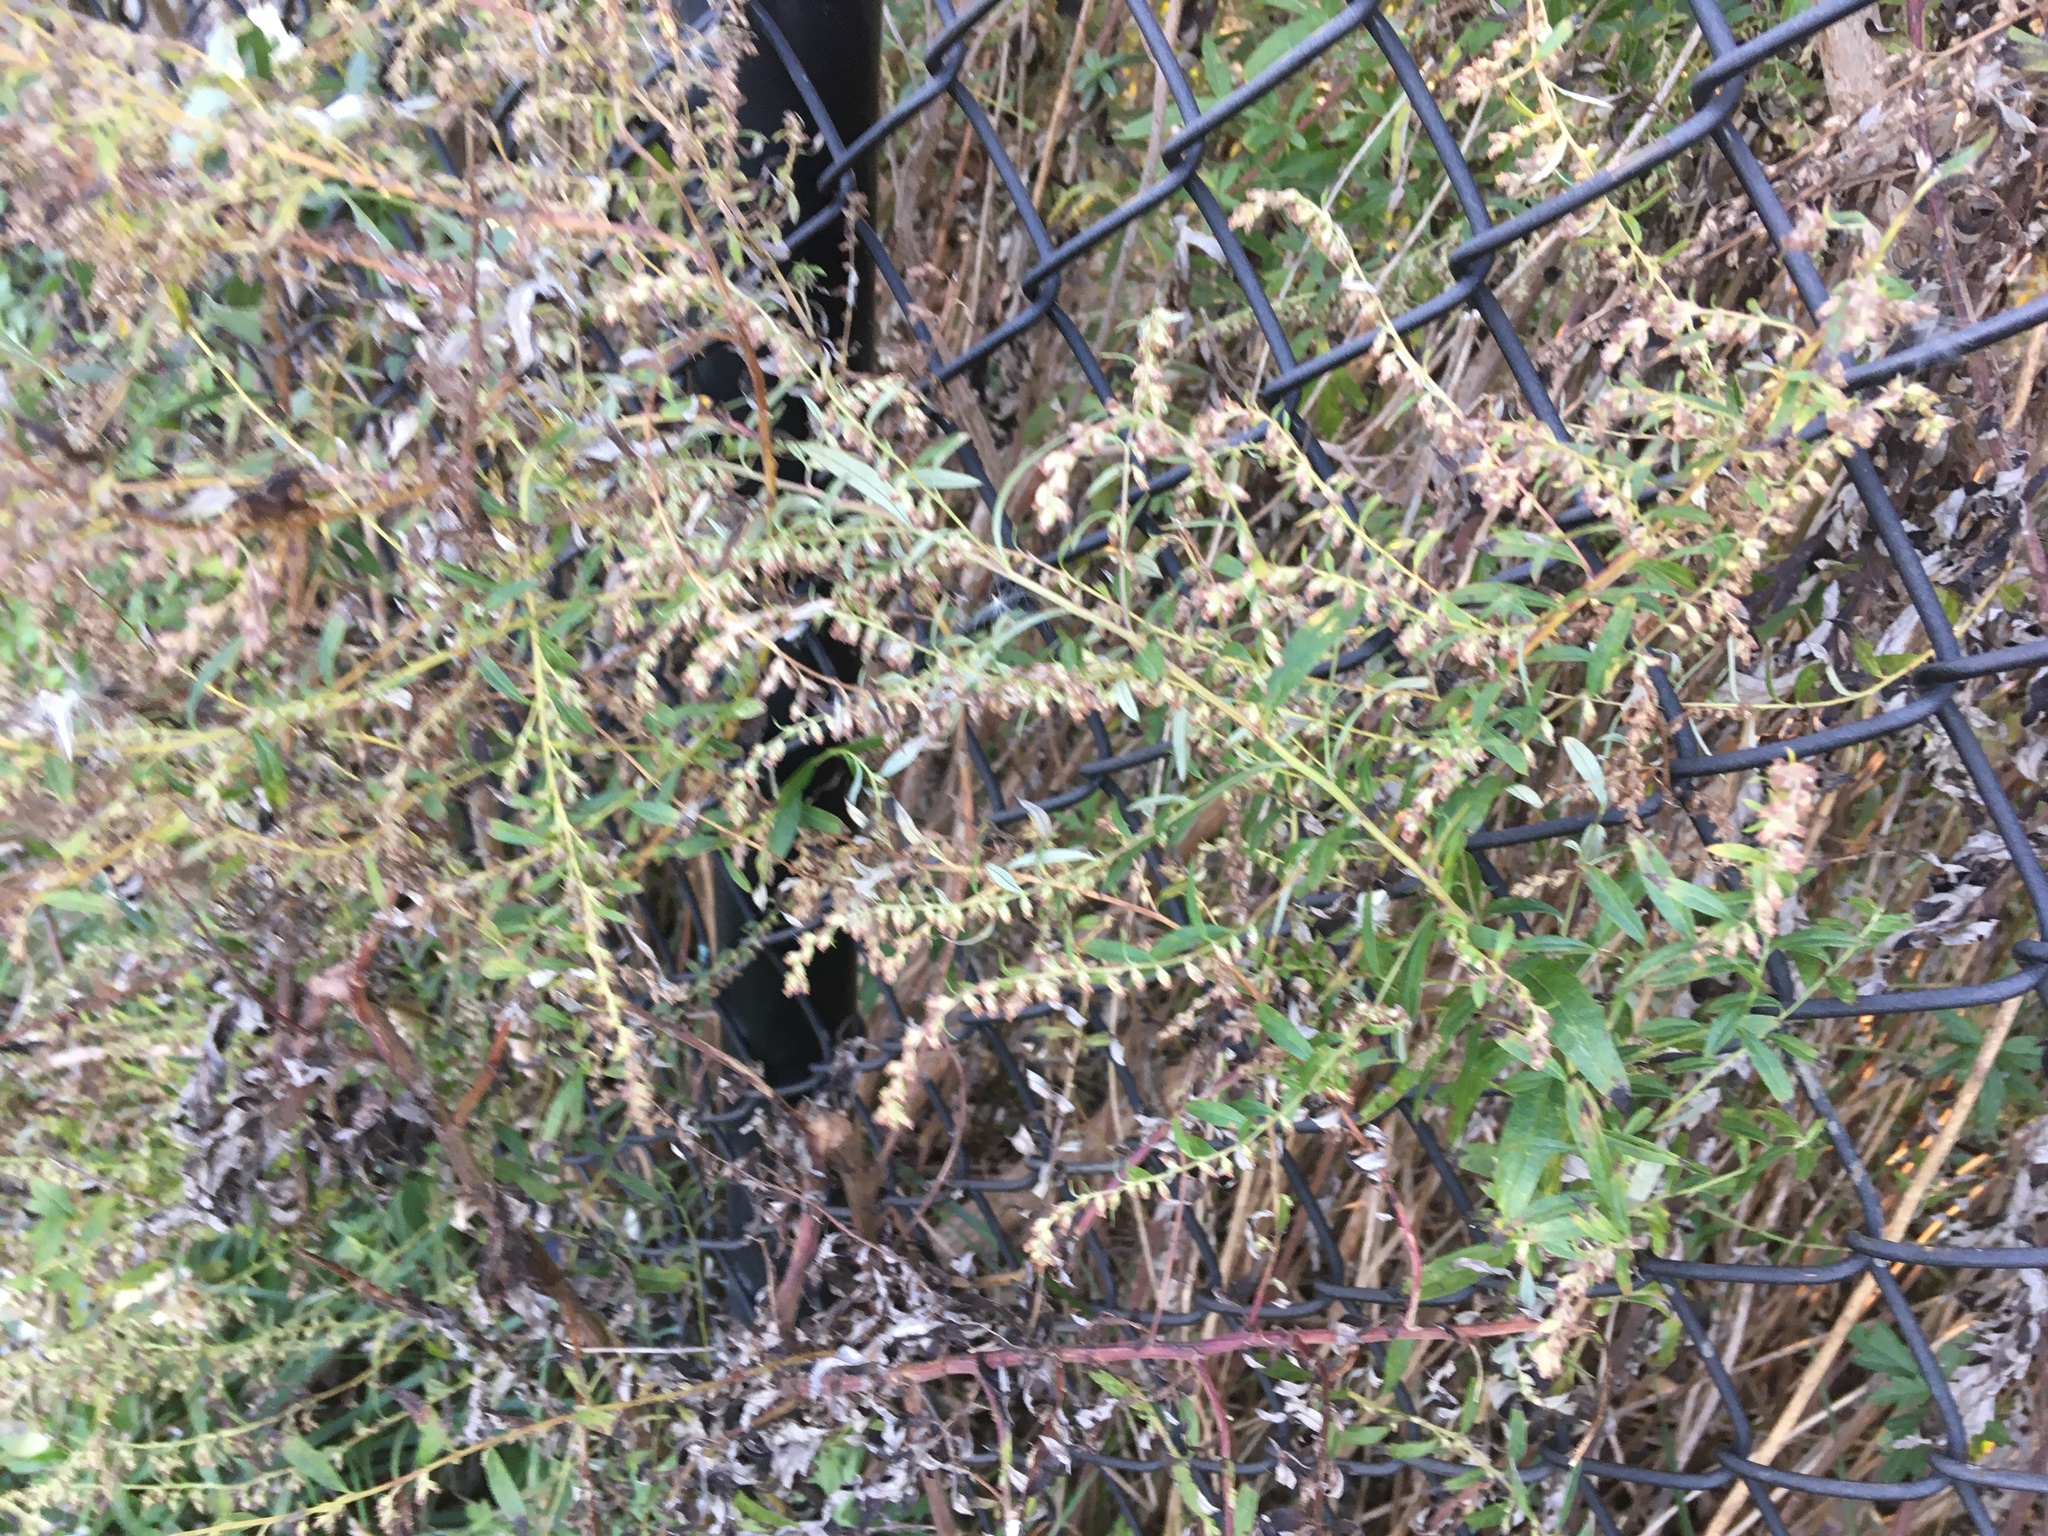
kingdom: Plantae
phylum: Tracheophyta
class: Magnoliopsida
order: Asterales
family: Asteraceae
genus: Artemisia
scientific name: Artemisia vulgaris
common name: Mugwort
